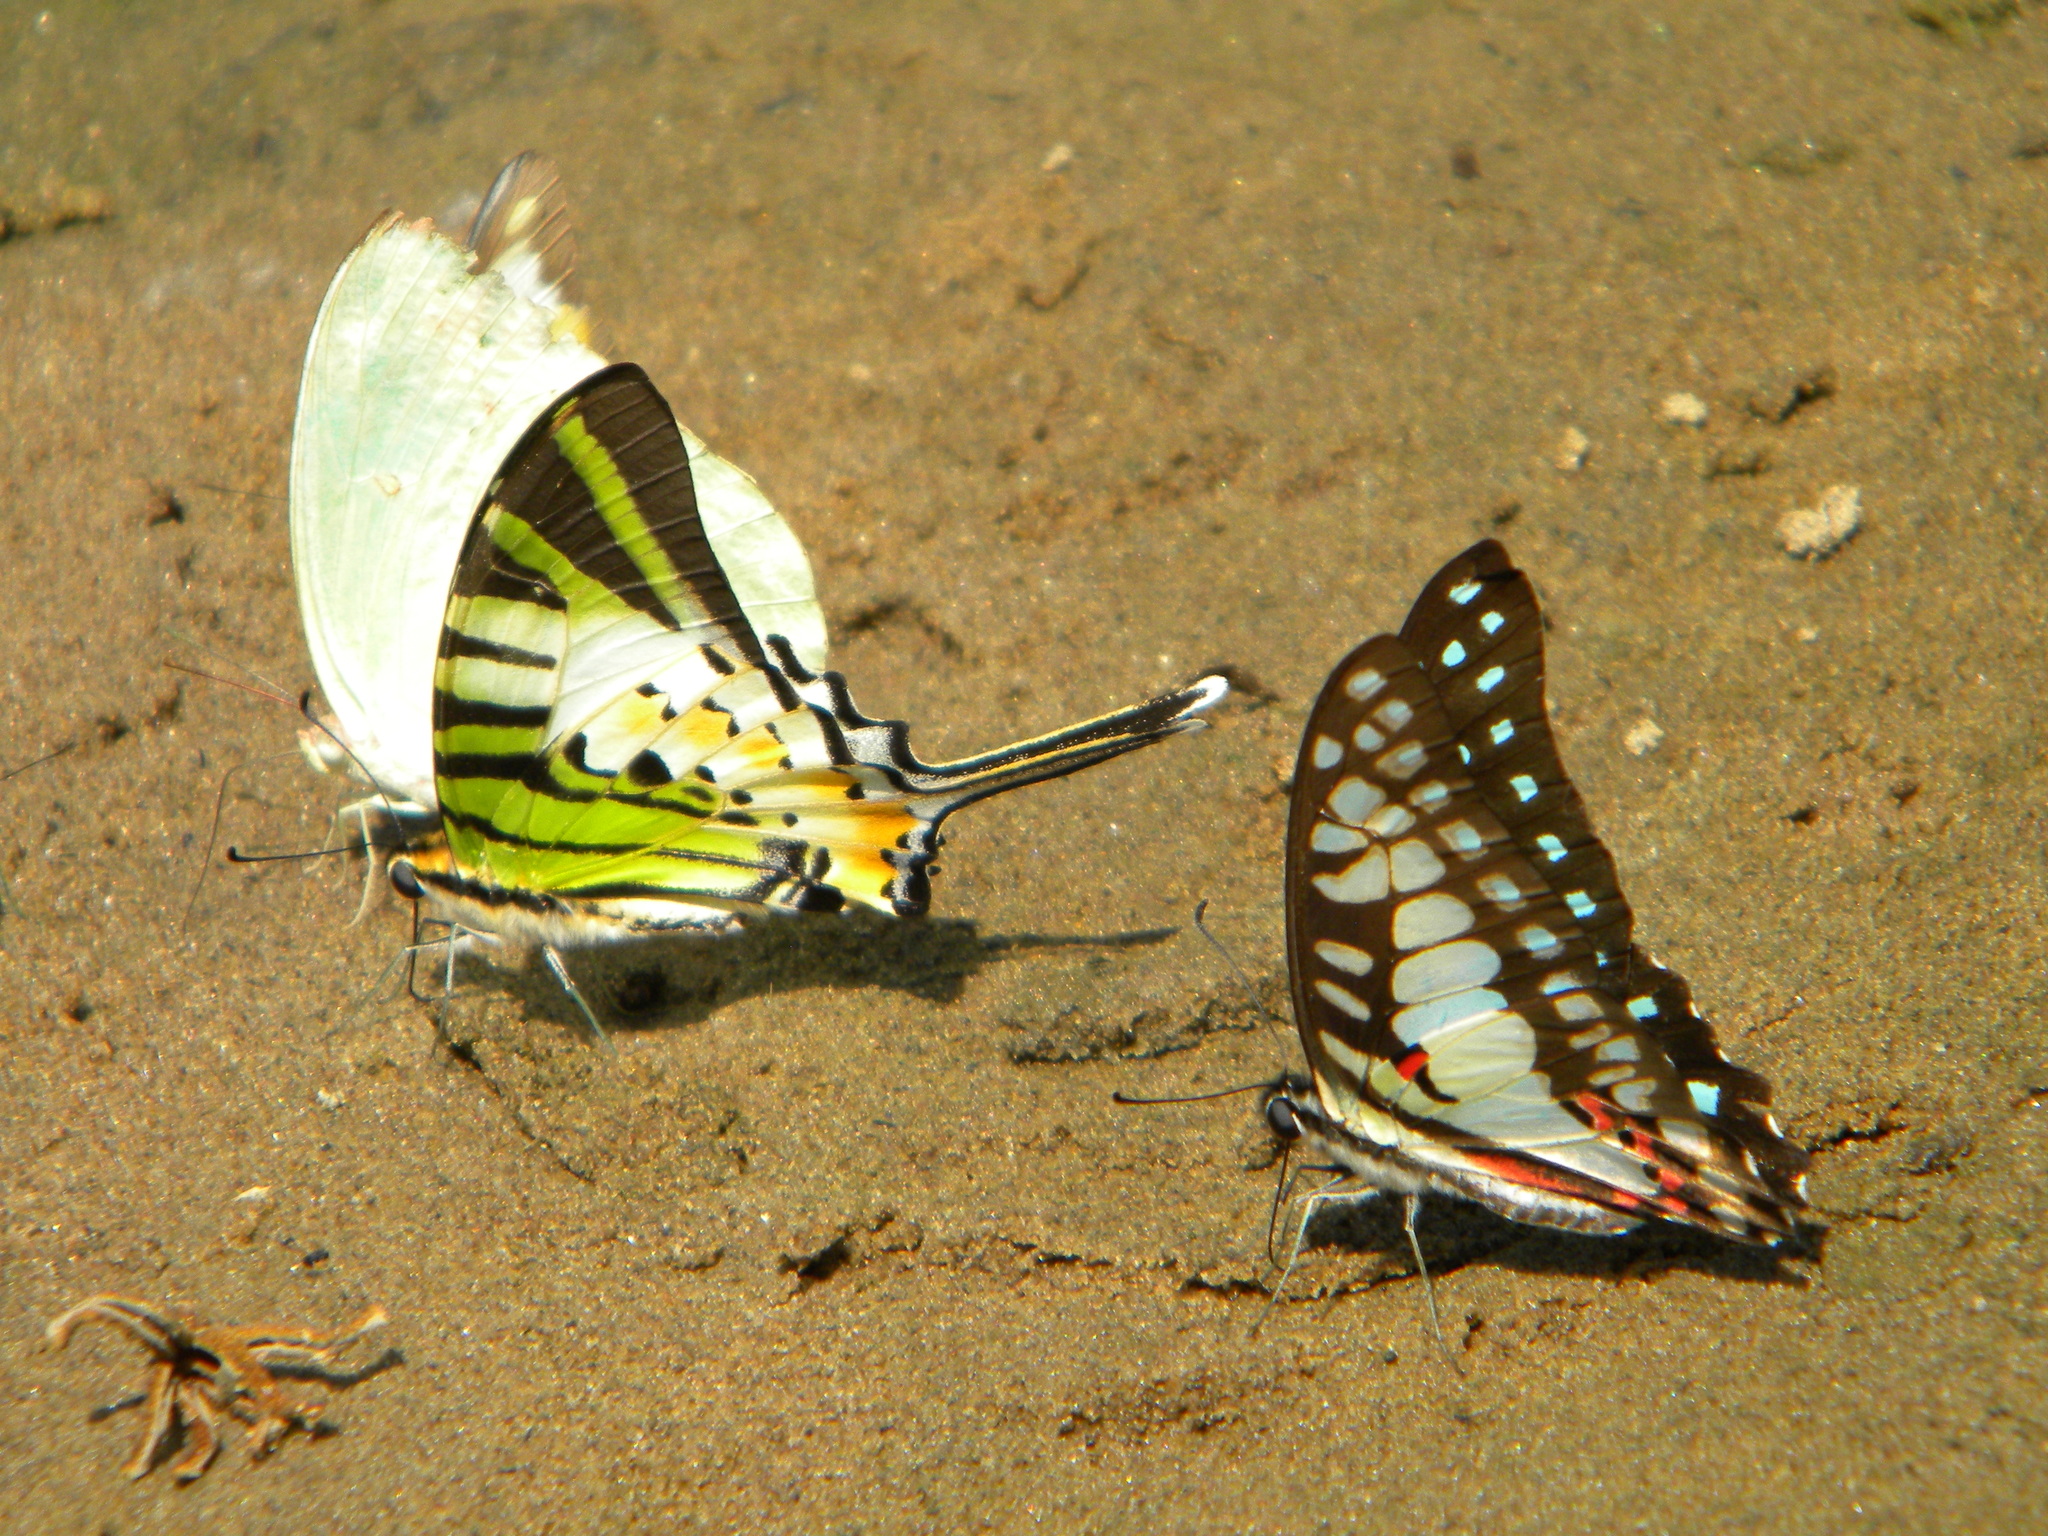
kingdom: Animalia
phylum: Arthropoda
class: Insecta
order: Lepidoptera
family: Papilionidae
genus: Graphium
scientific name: Graphium eurypylus
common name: Great jay
